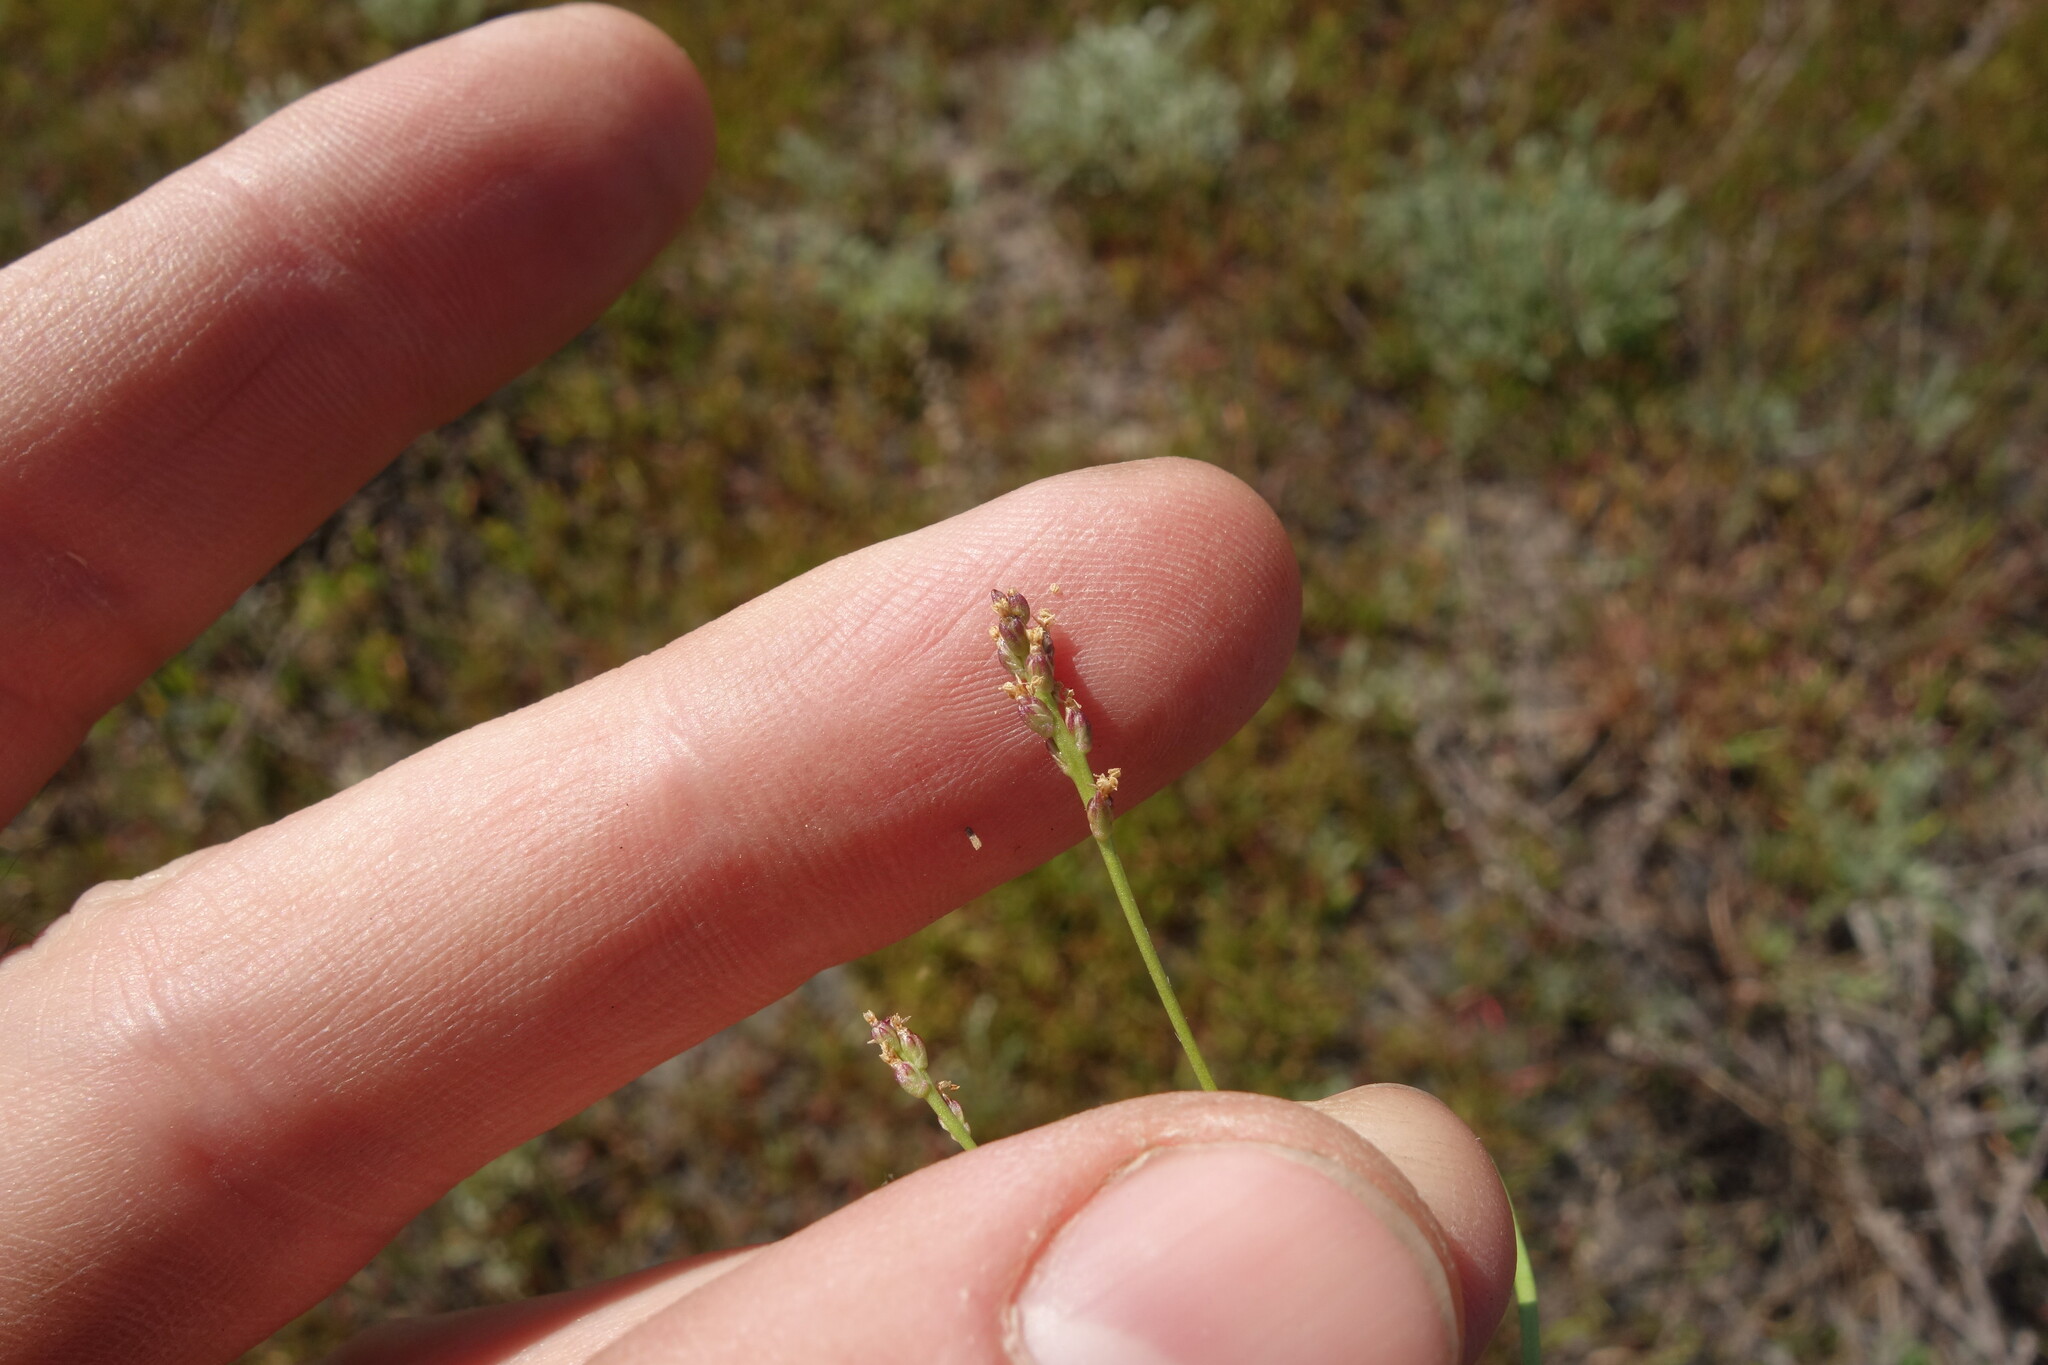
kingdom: Plantae
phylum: Tracheophyta
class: Magnoliopsida
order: Lamiales
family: Plantaginaceae
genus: Plantago
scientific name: Plantago tenuiflora
